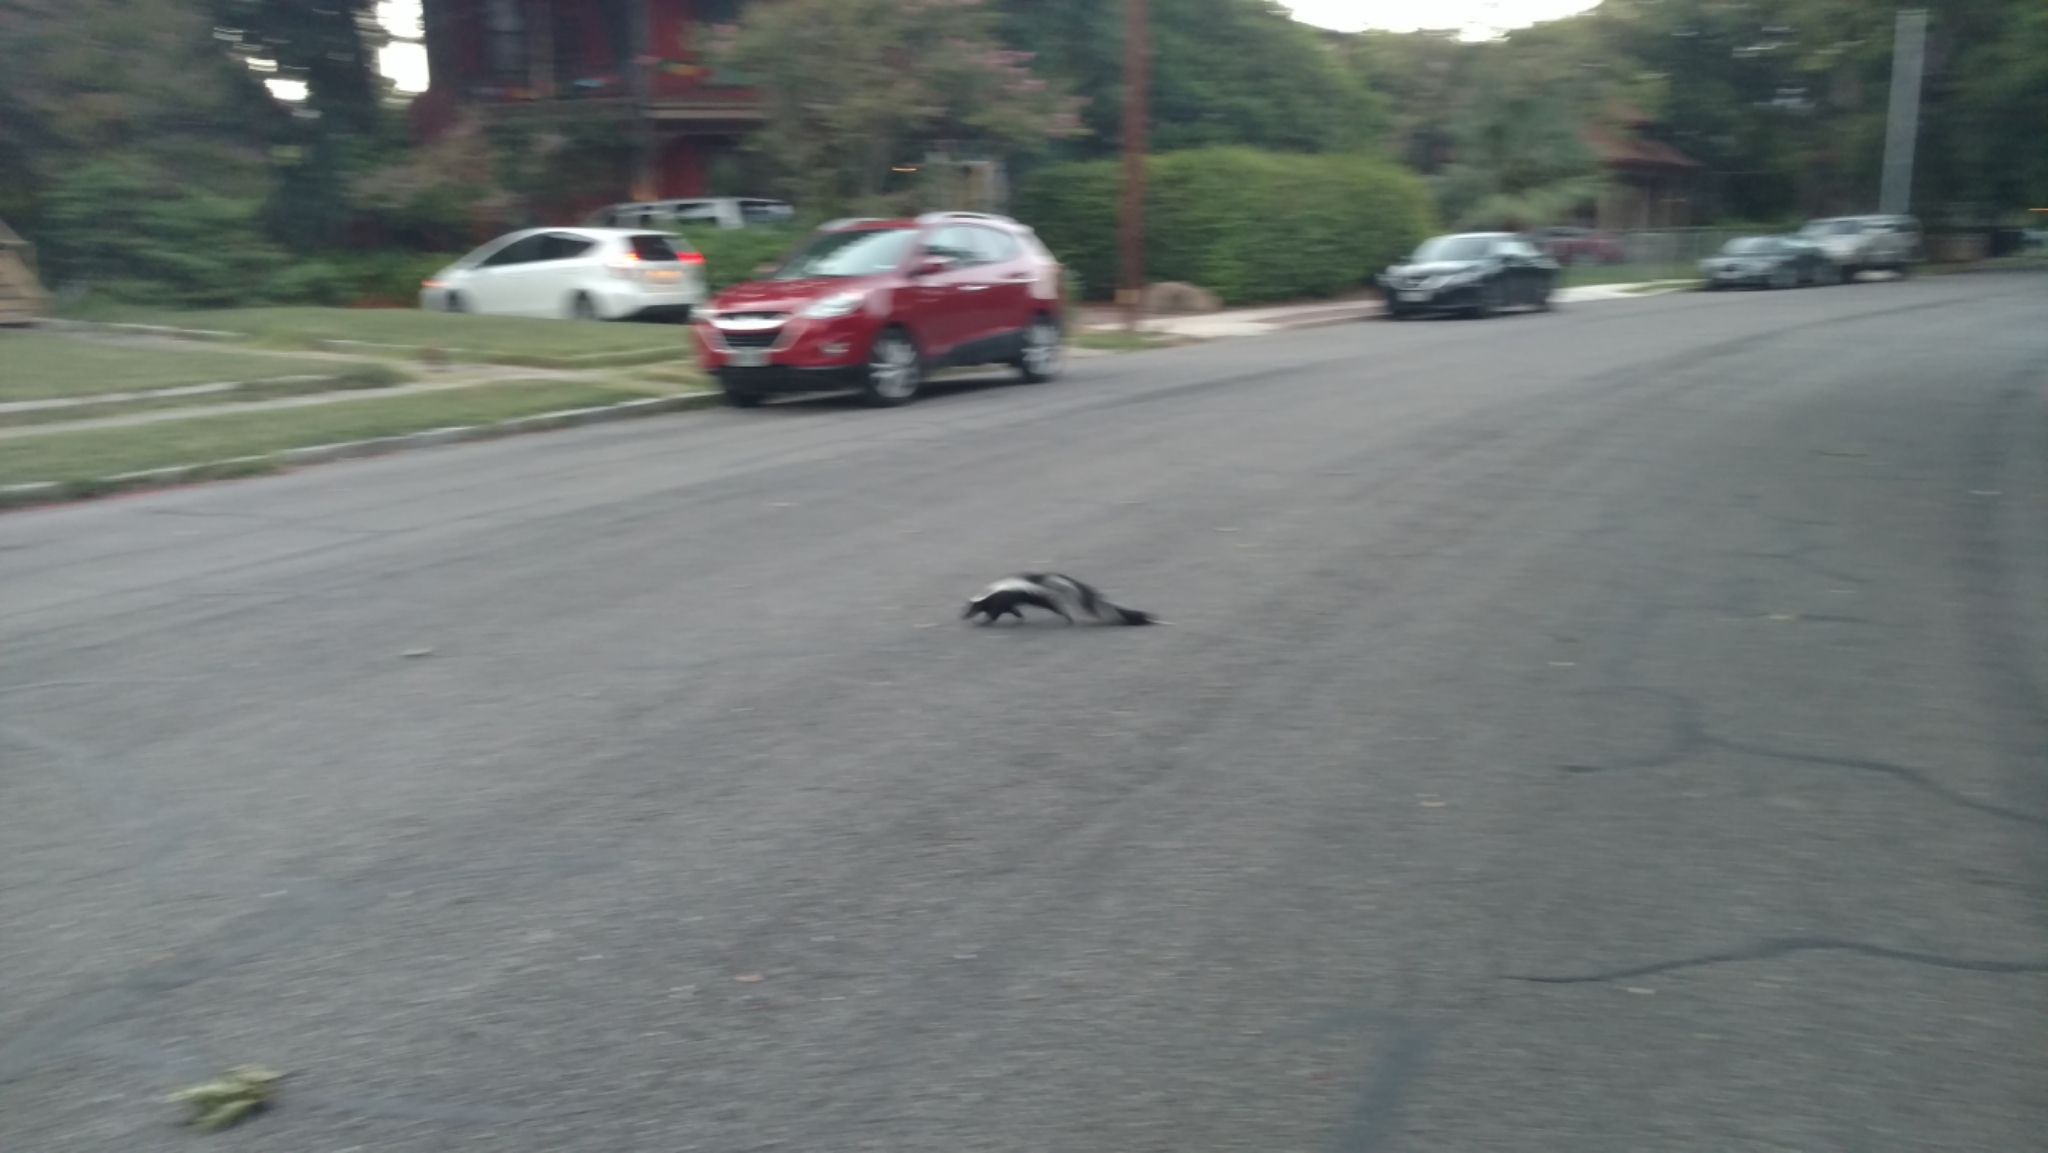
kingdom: Animalia
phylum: Chordata
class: Mammalia
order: Carnivora
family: Mephitidae
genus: Mephitis
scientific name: Mephitis mephitis
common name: Striped skunk
